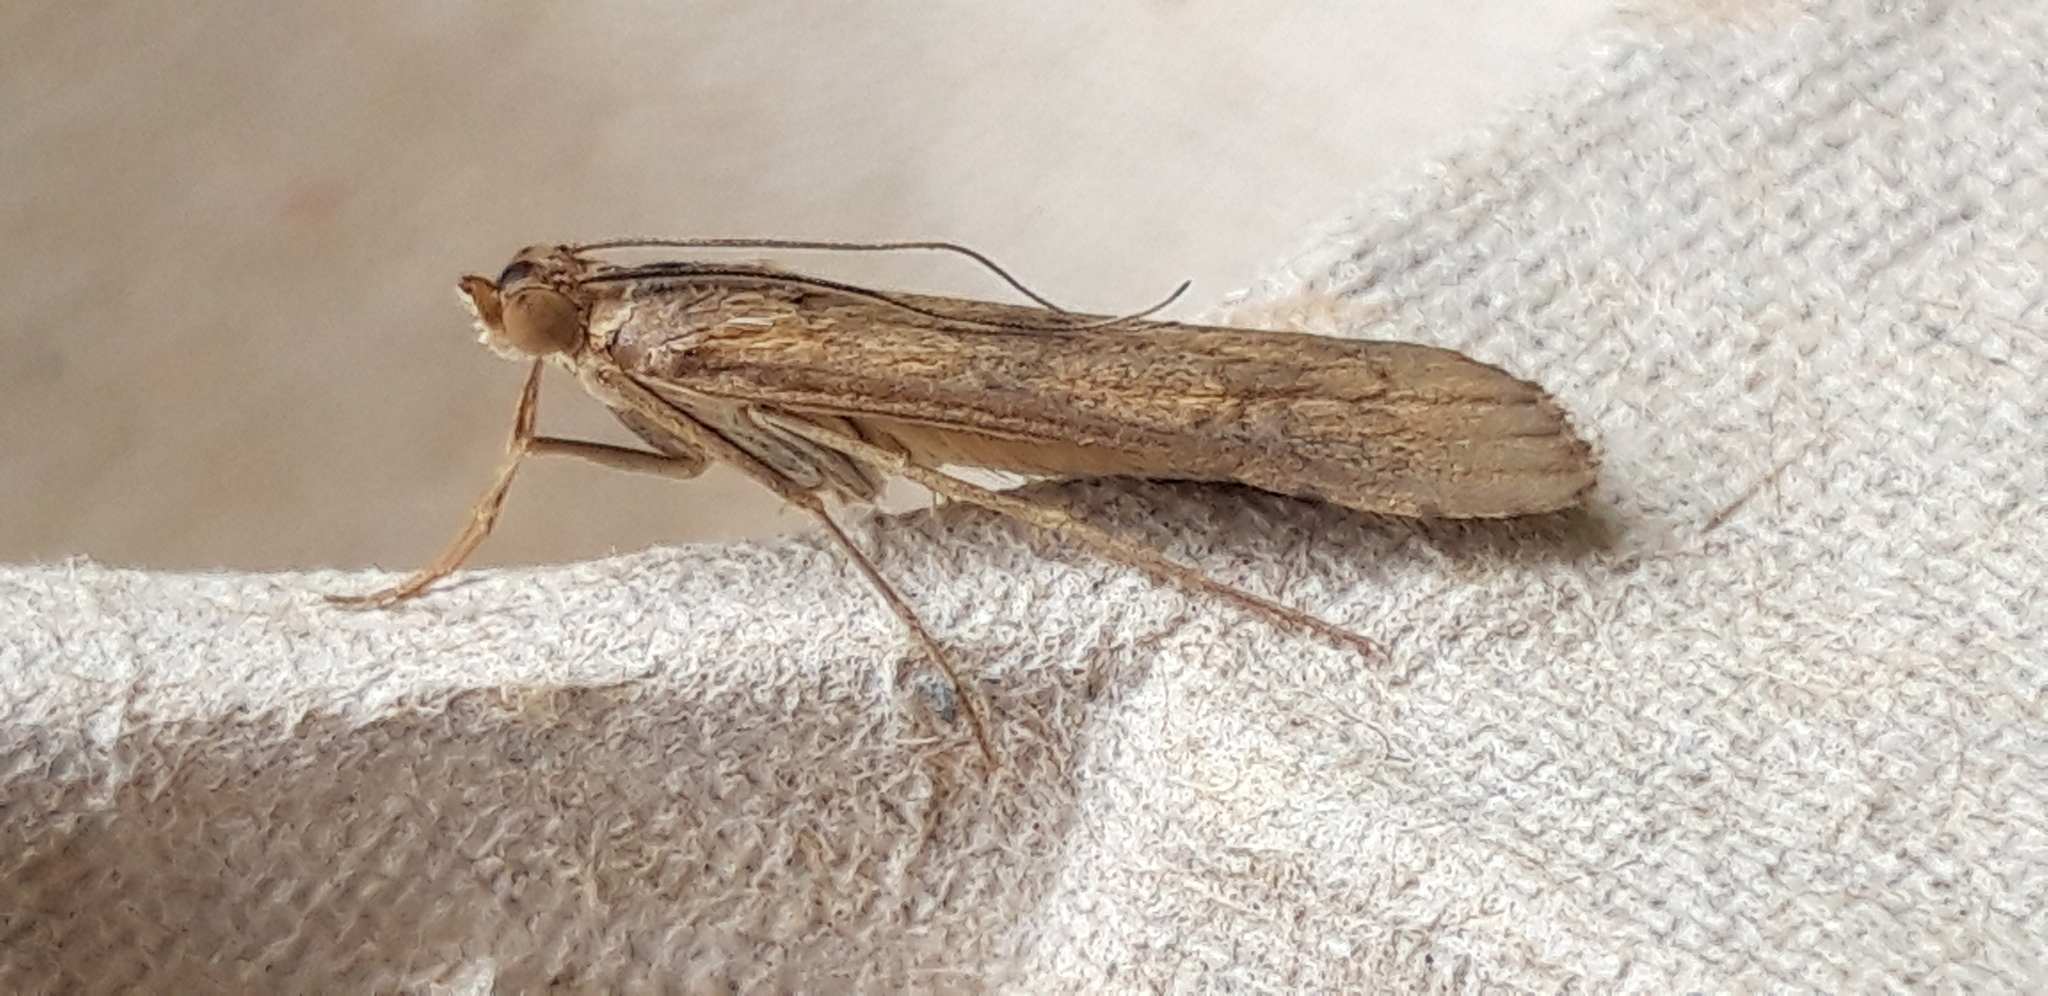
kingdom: Animalia
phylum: Arthropoda
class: Insecta
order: Lepidoptera
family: Crambidae
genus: Nomophila
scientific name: Nomophila noctuella
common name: Rush veneer
